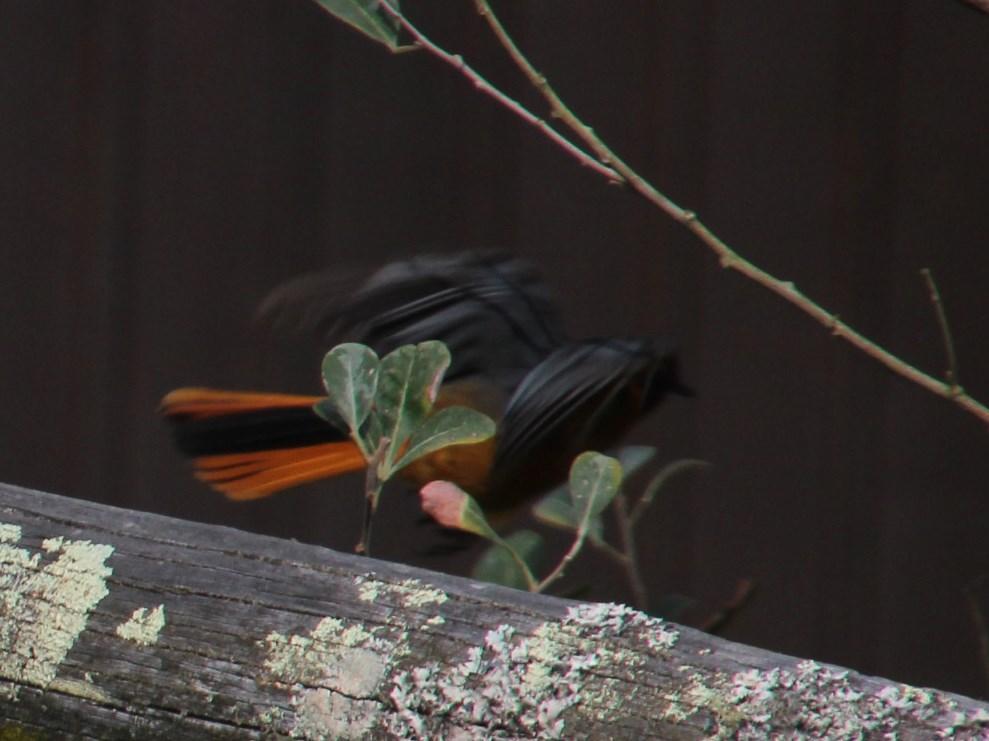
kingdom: Animalia
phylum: Chordata
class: Aves
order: Passeriformes
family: Muscicapidae
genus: Cossypha
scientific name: Cossypha dichroa
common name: Chorister robin-chat
